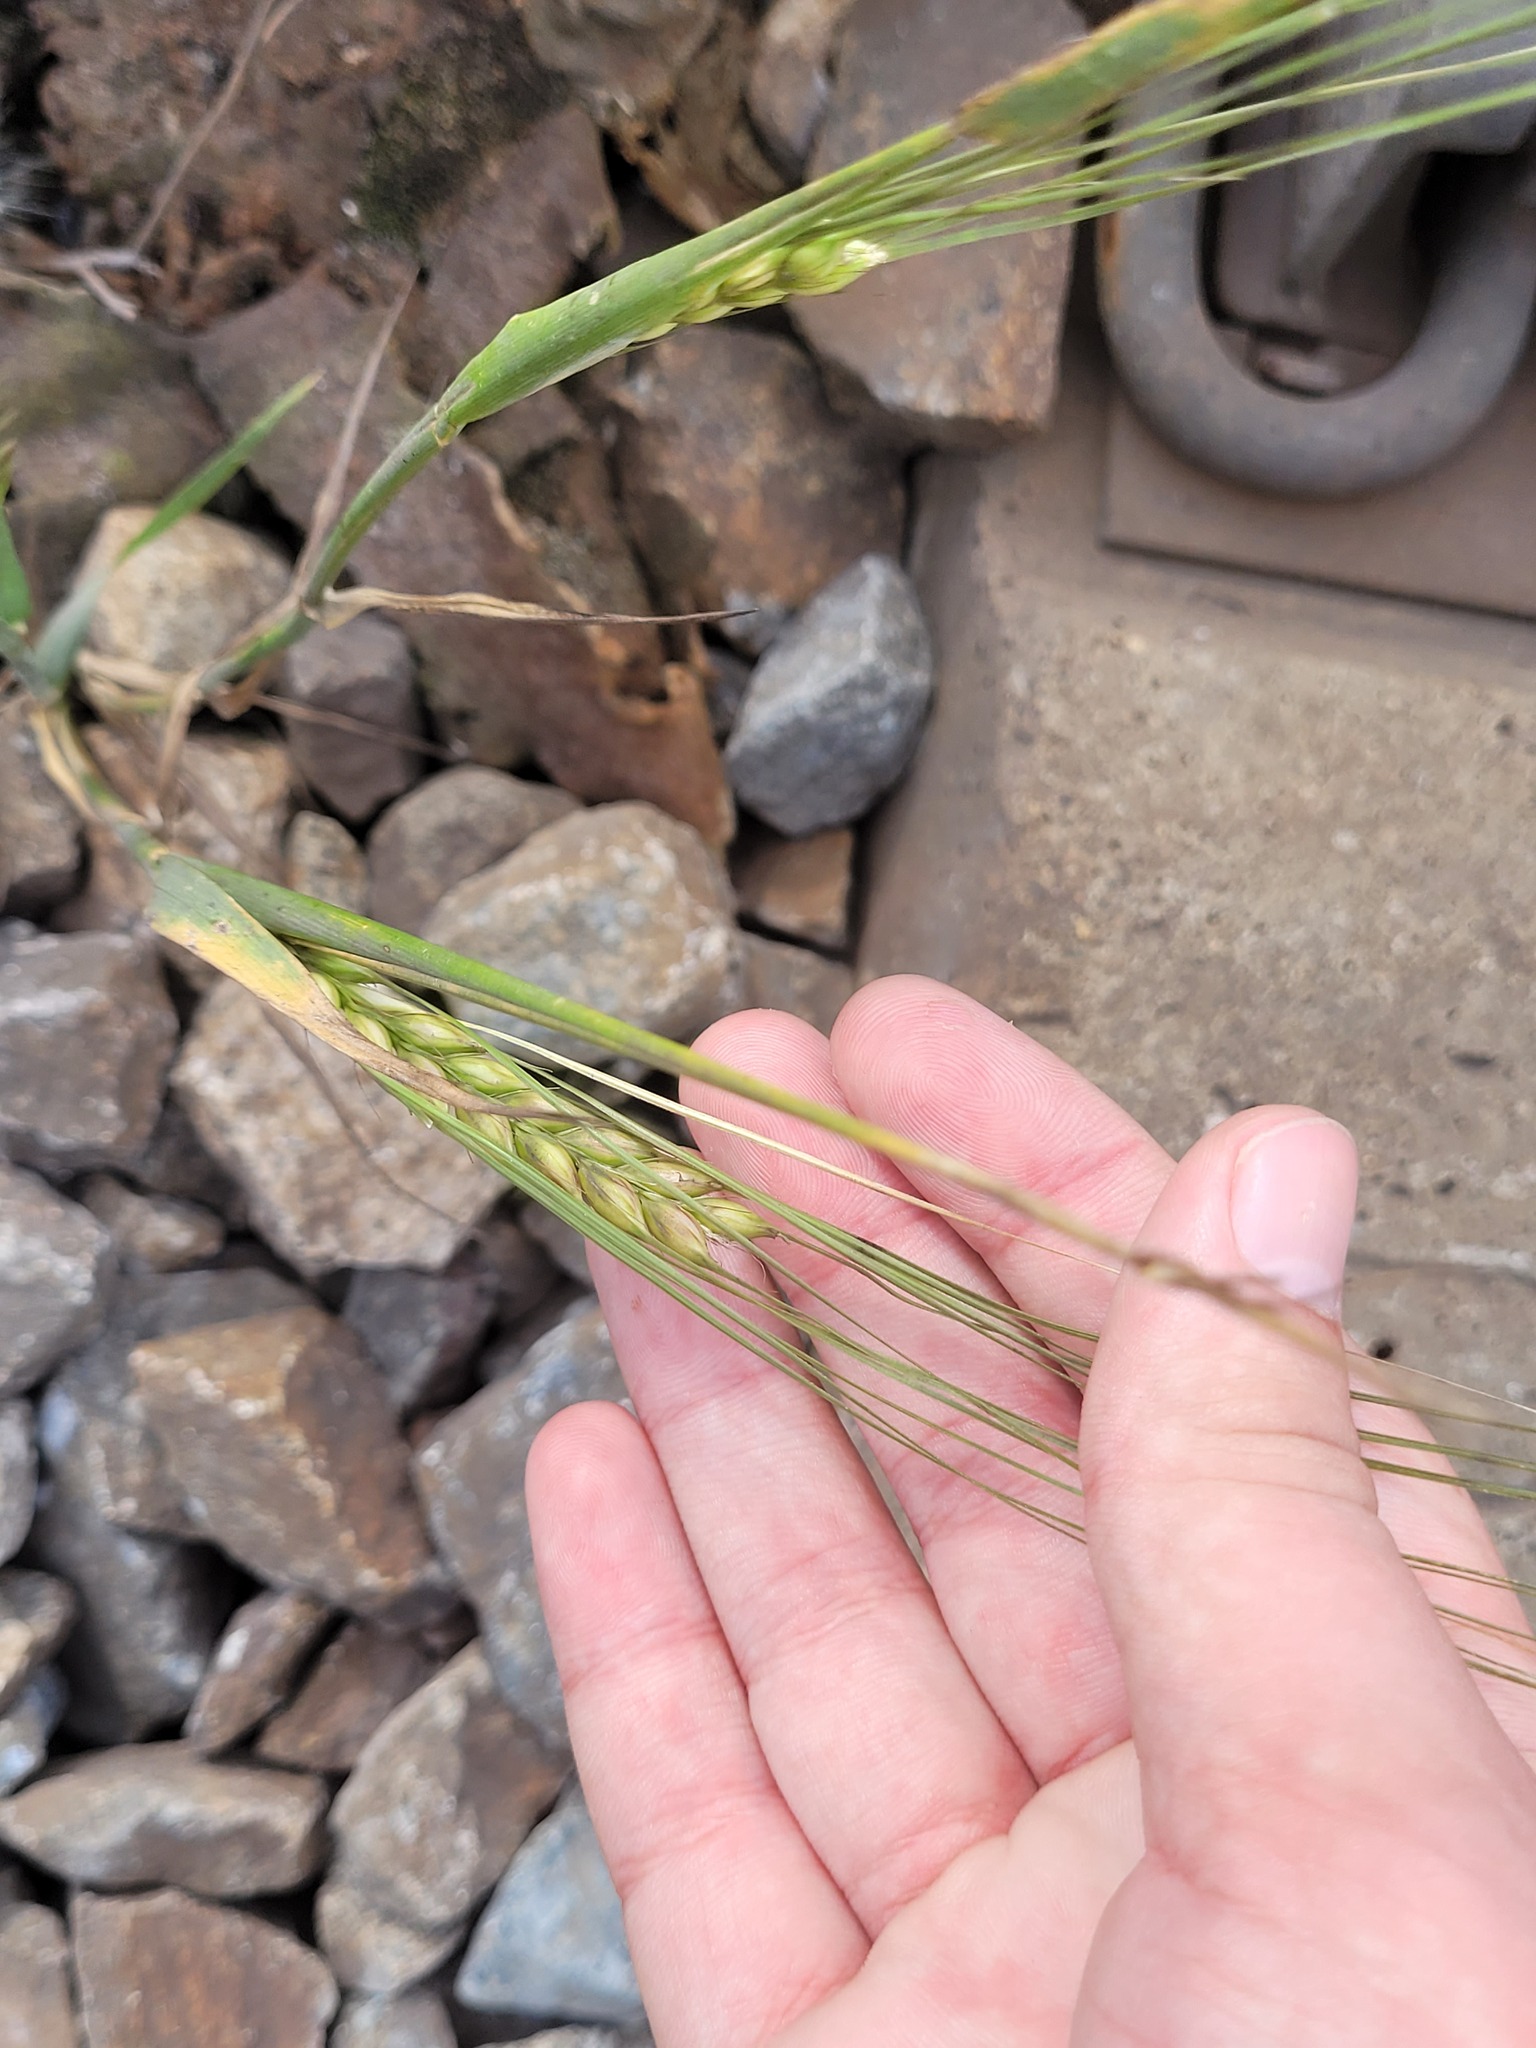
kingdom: Plantae
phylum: Tracheophyta
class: Liliopsida
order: Poales
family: Poaceae
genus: Hordeum
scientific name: Hordeum vulgare
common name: Common barley
